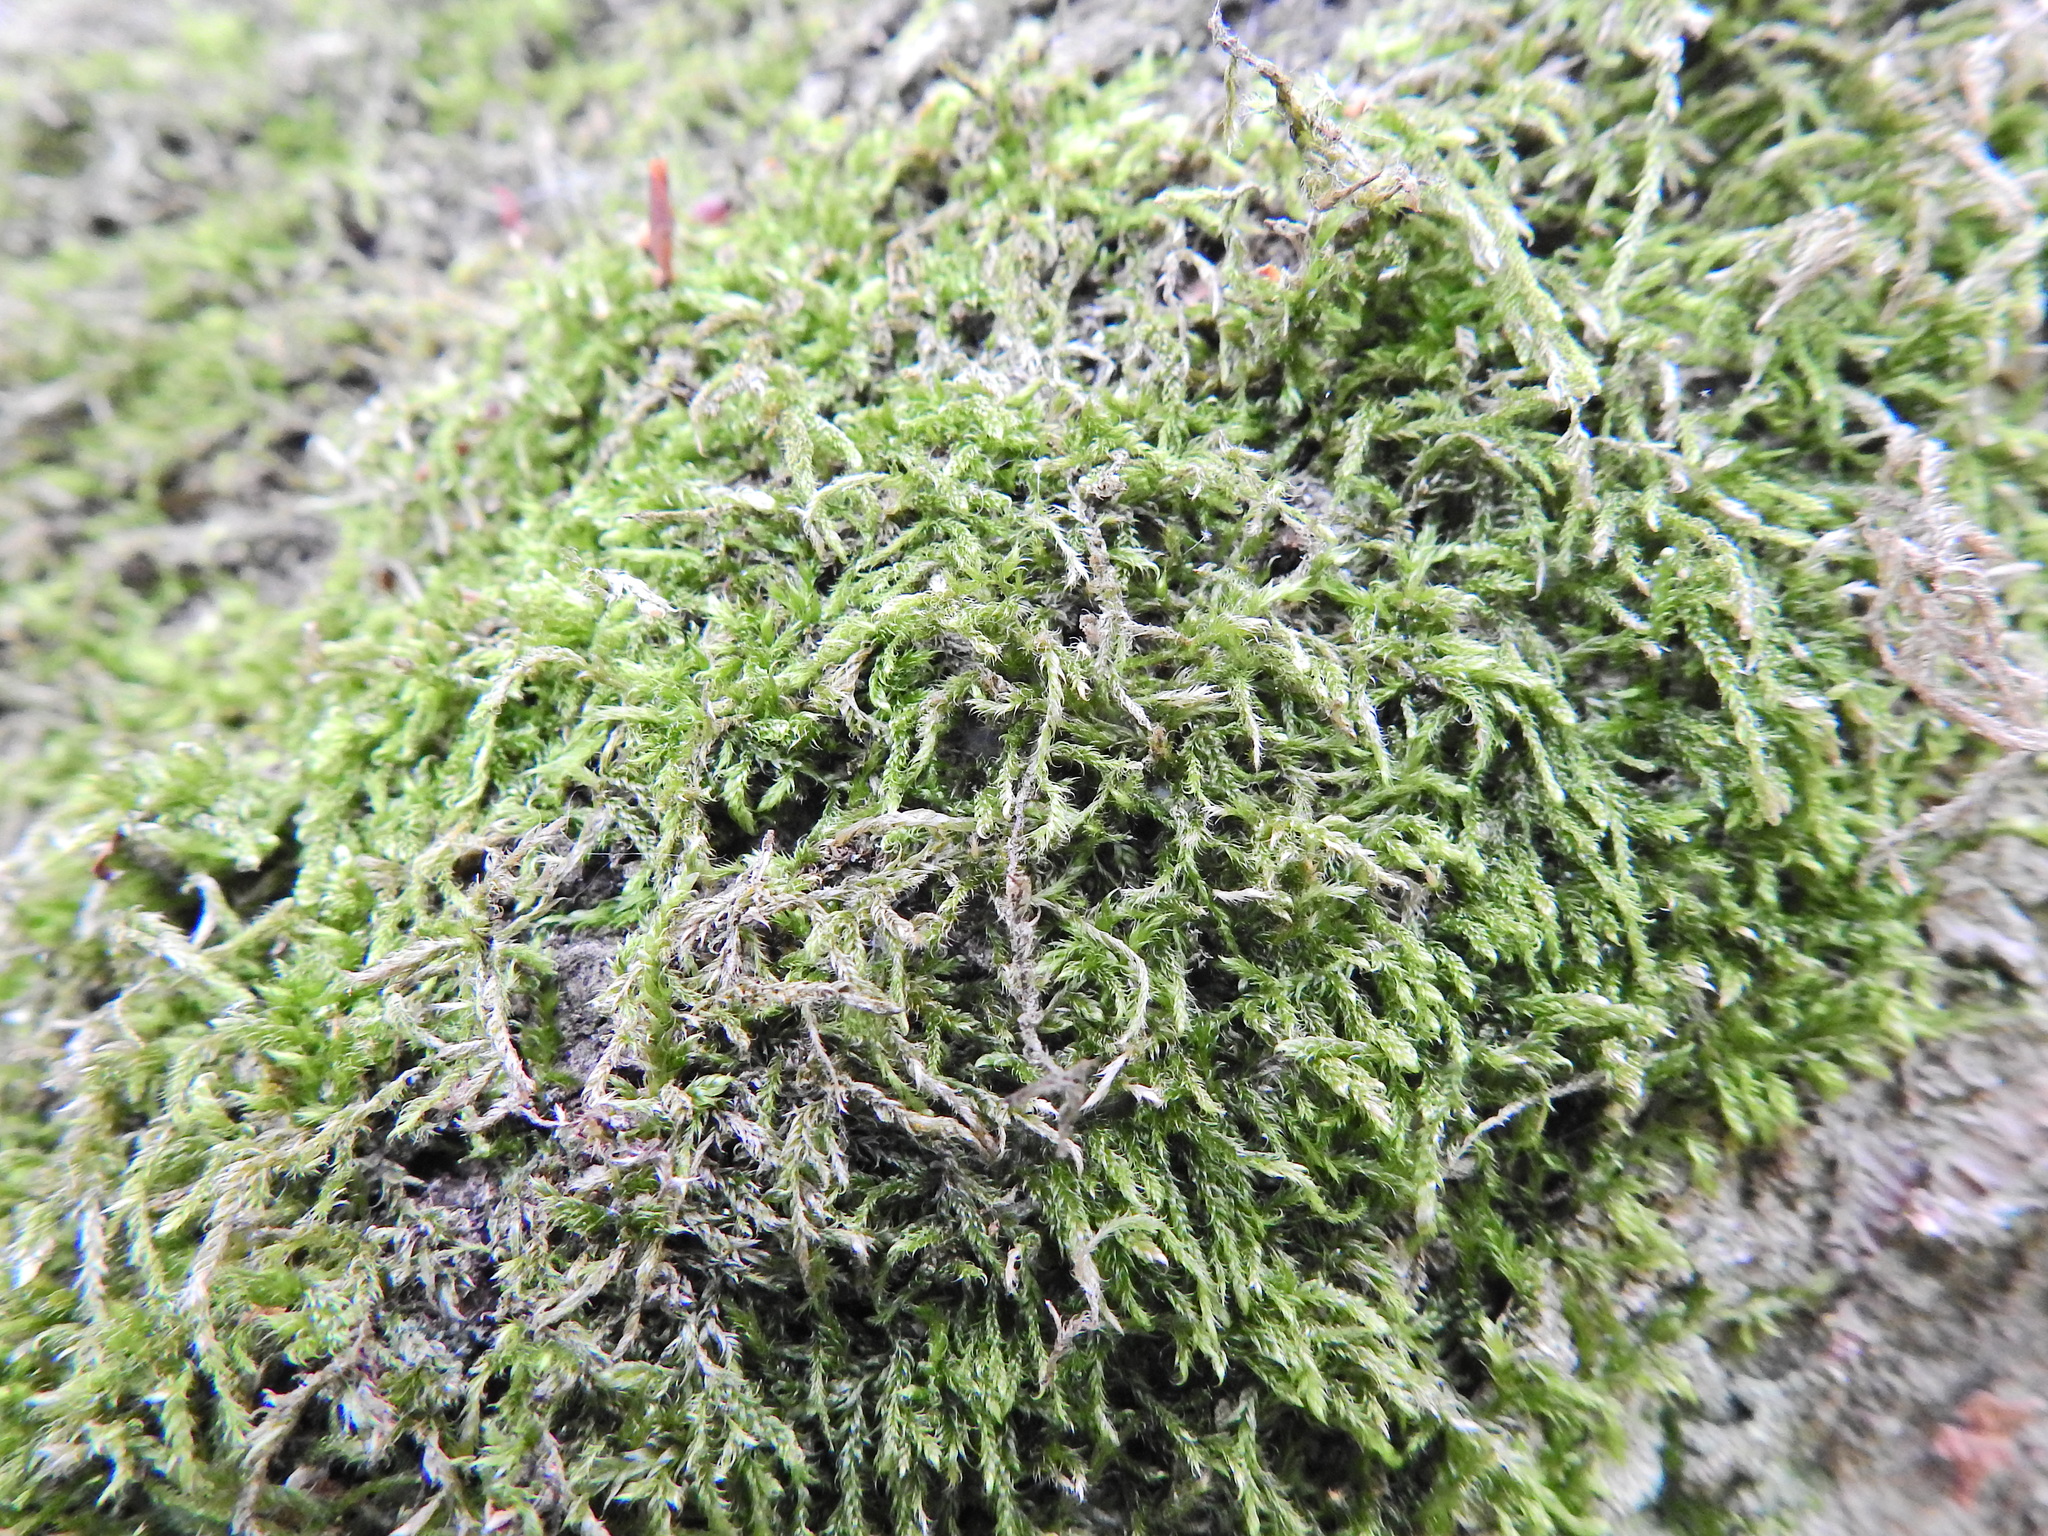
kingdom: Plantae
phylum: Bryophyta
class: Bryopsida
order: Hypnales
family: Hypnaceae
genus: Hypnum
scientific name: Hypnum cupressiforme
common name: Cypress-leaved plait-moss
